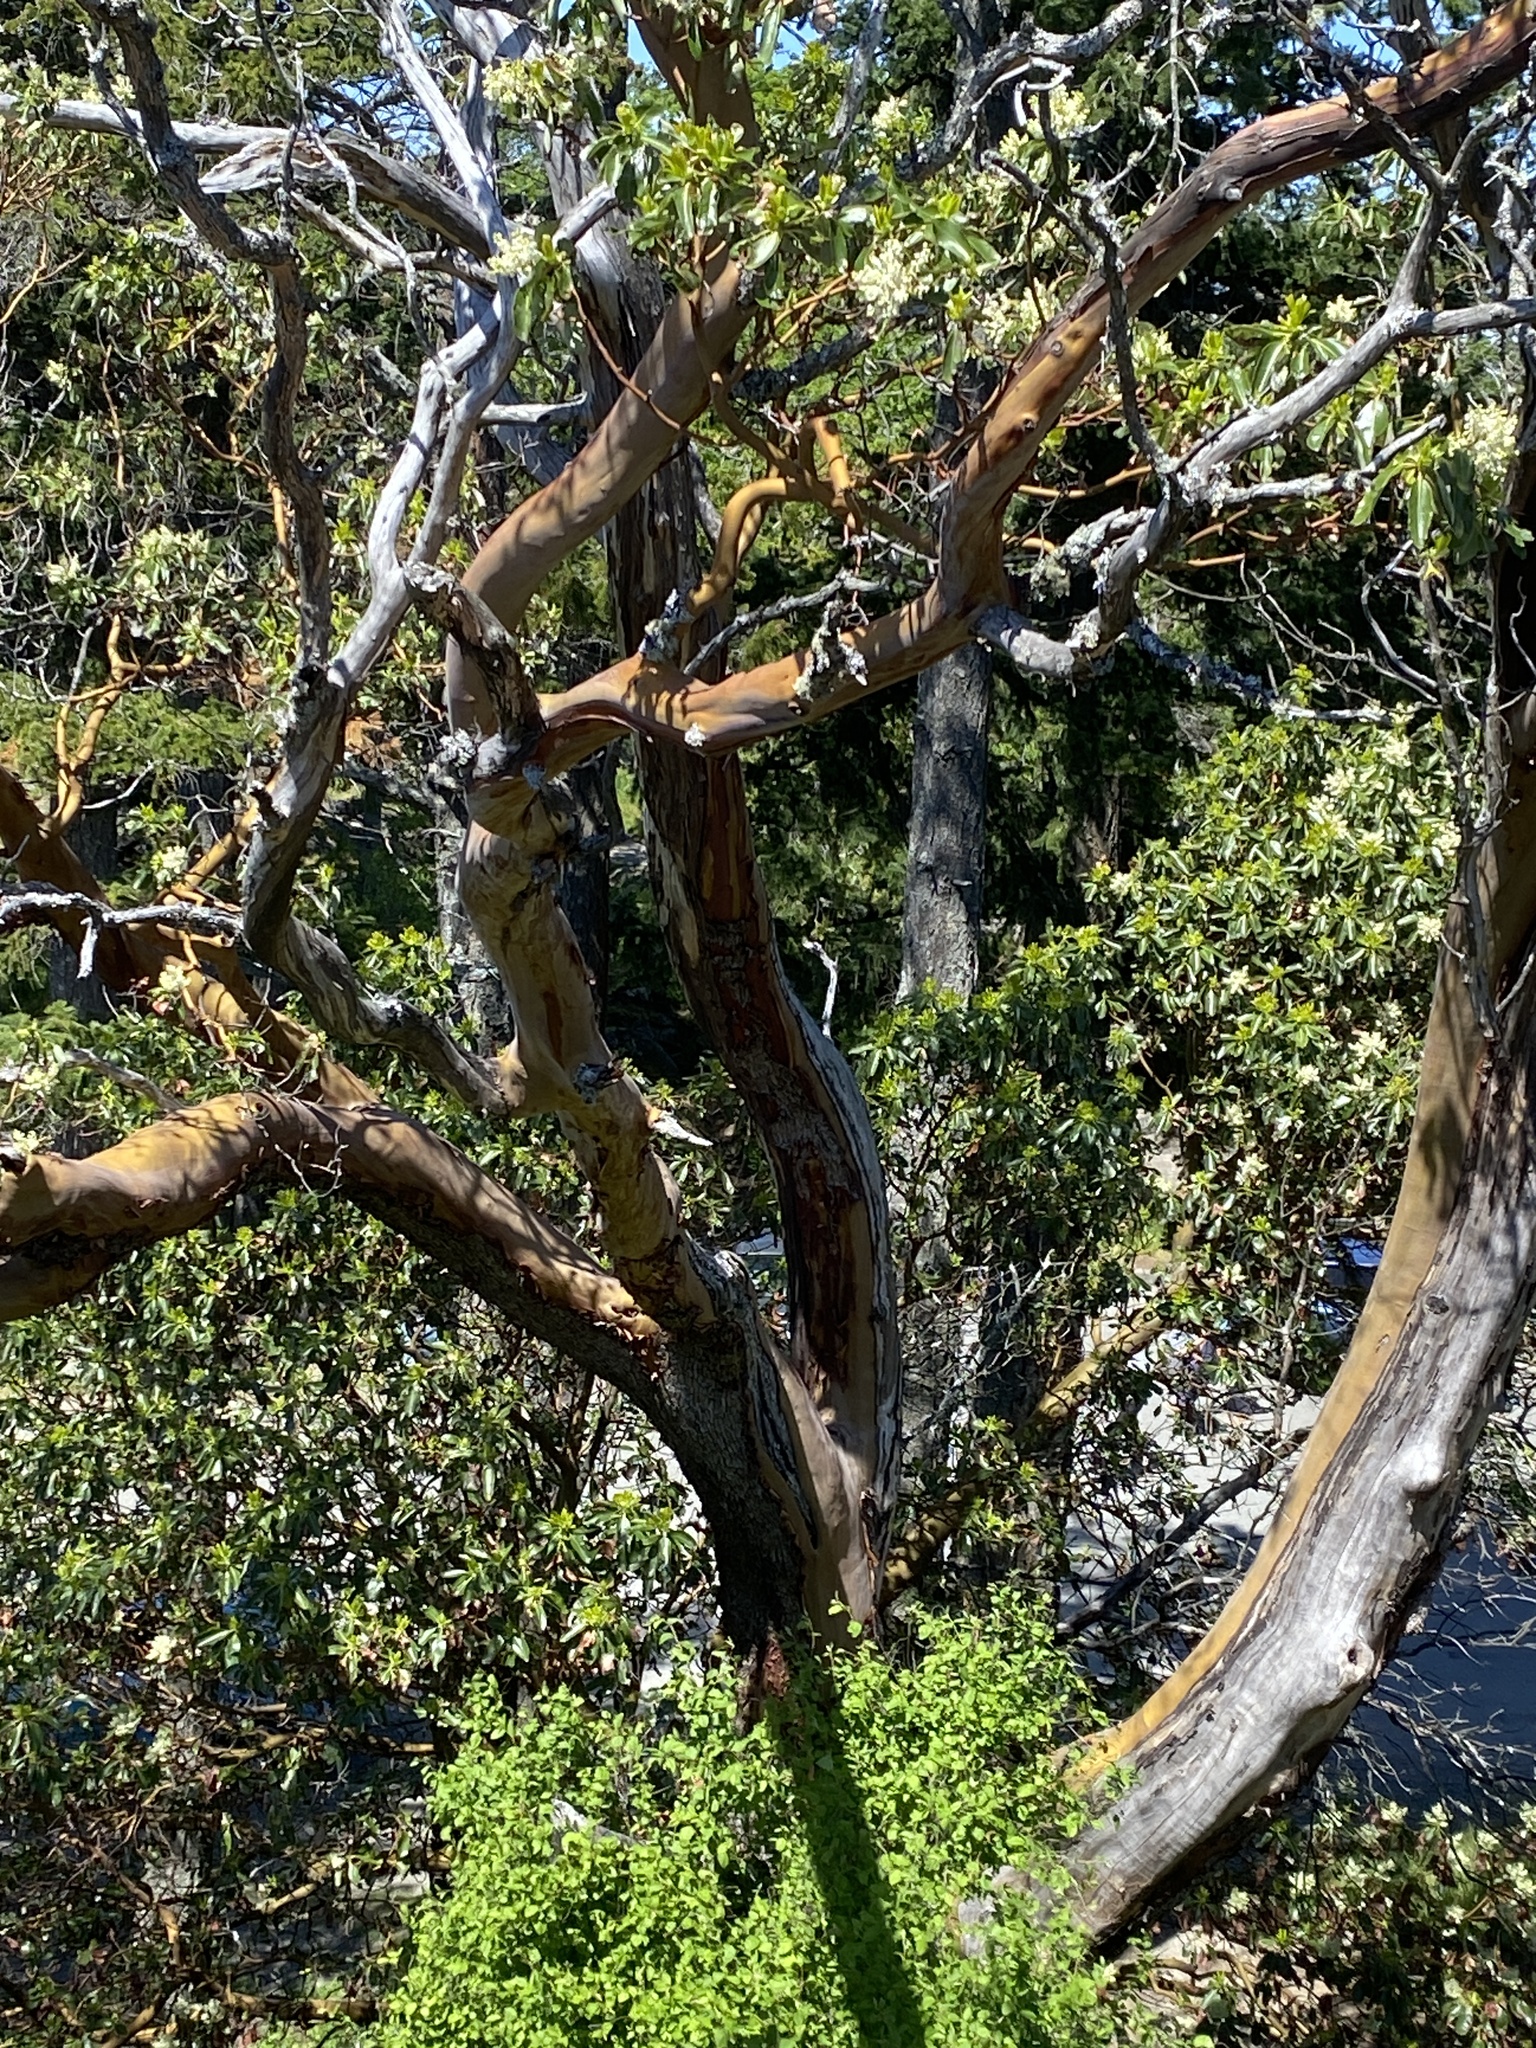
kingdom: Plantae
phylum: Tracheophyta
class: Magnoliopsida
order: Ericales
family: Ericaceae
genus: Arbutus
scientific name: Arbutus menziesii
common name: Pacific madrone
